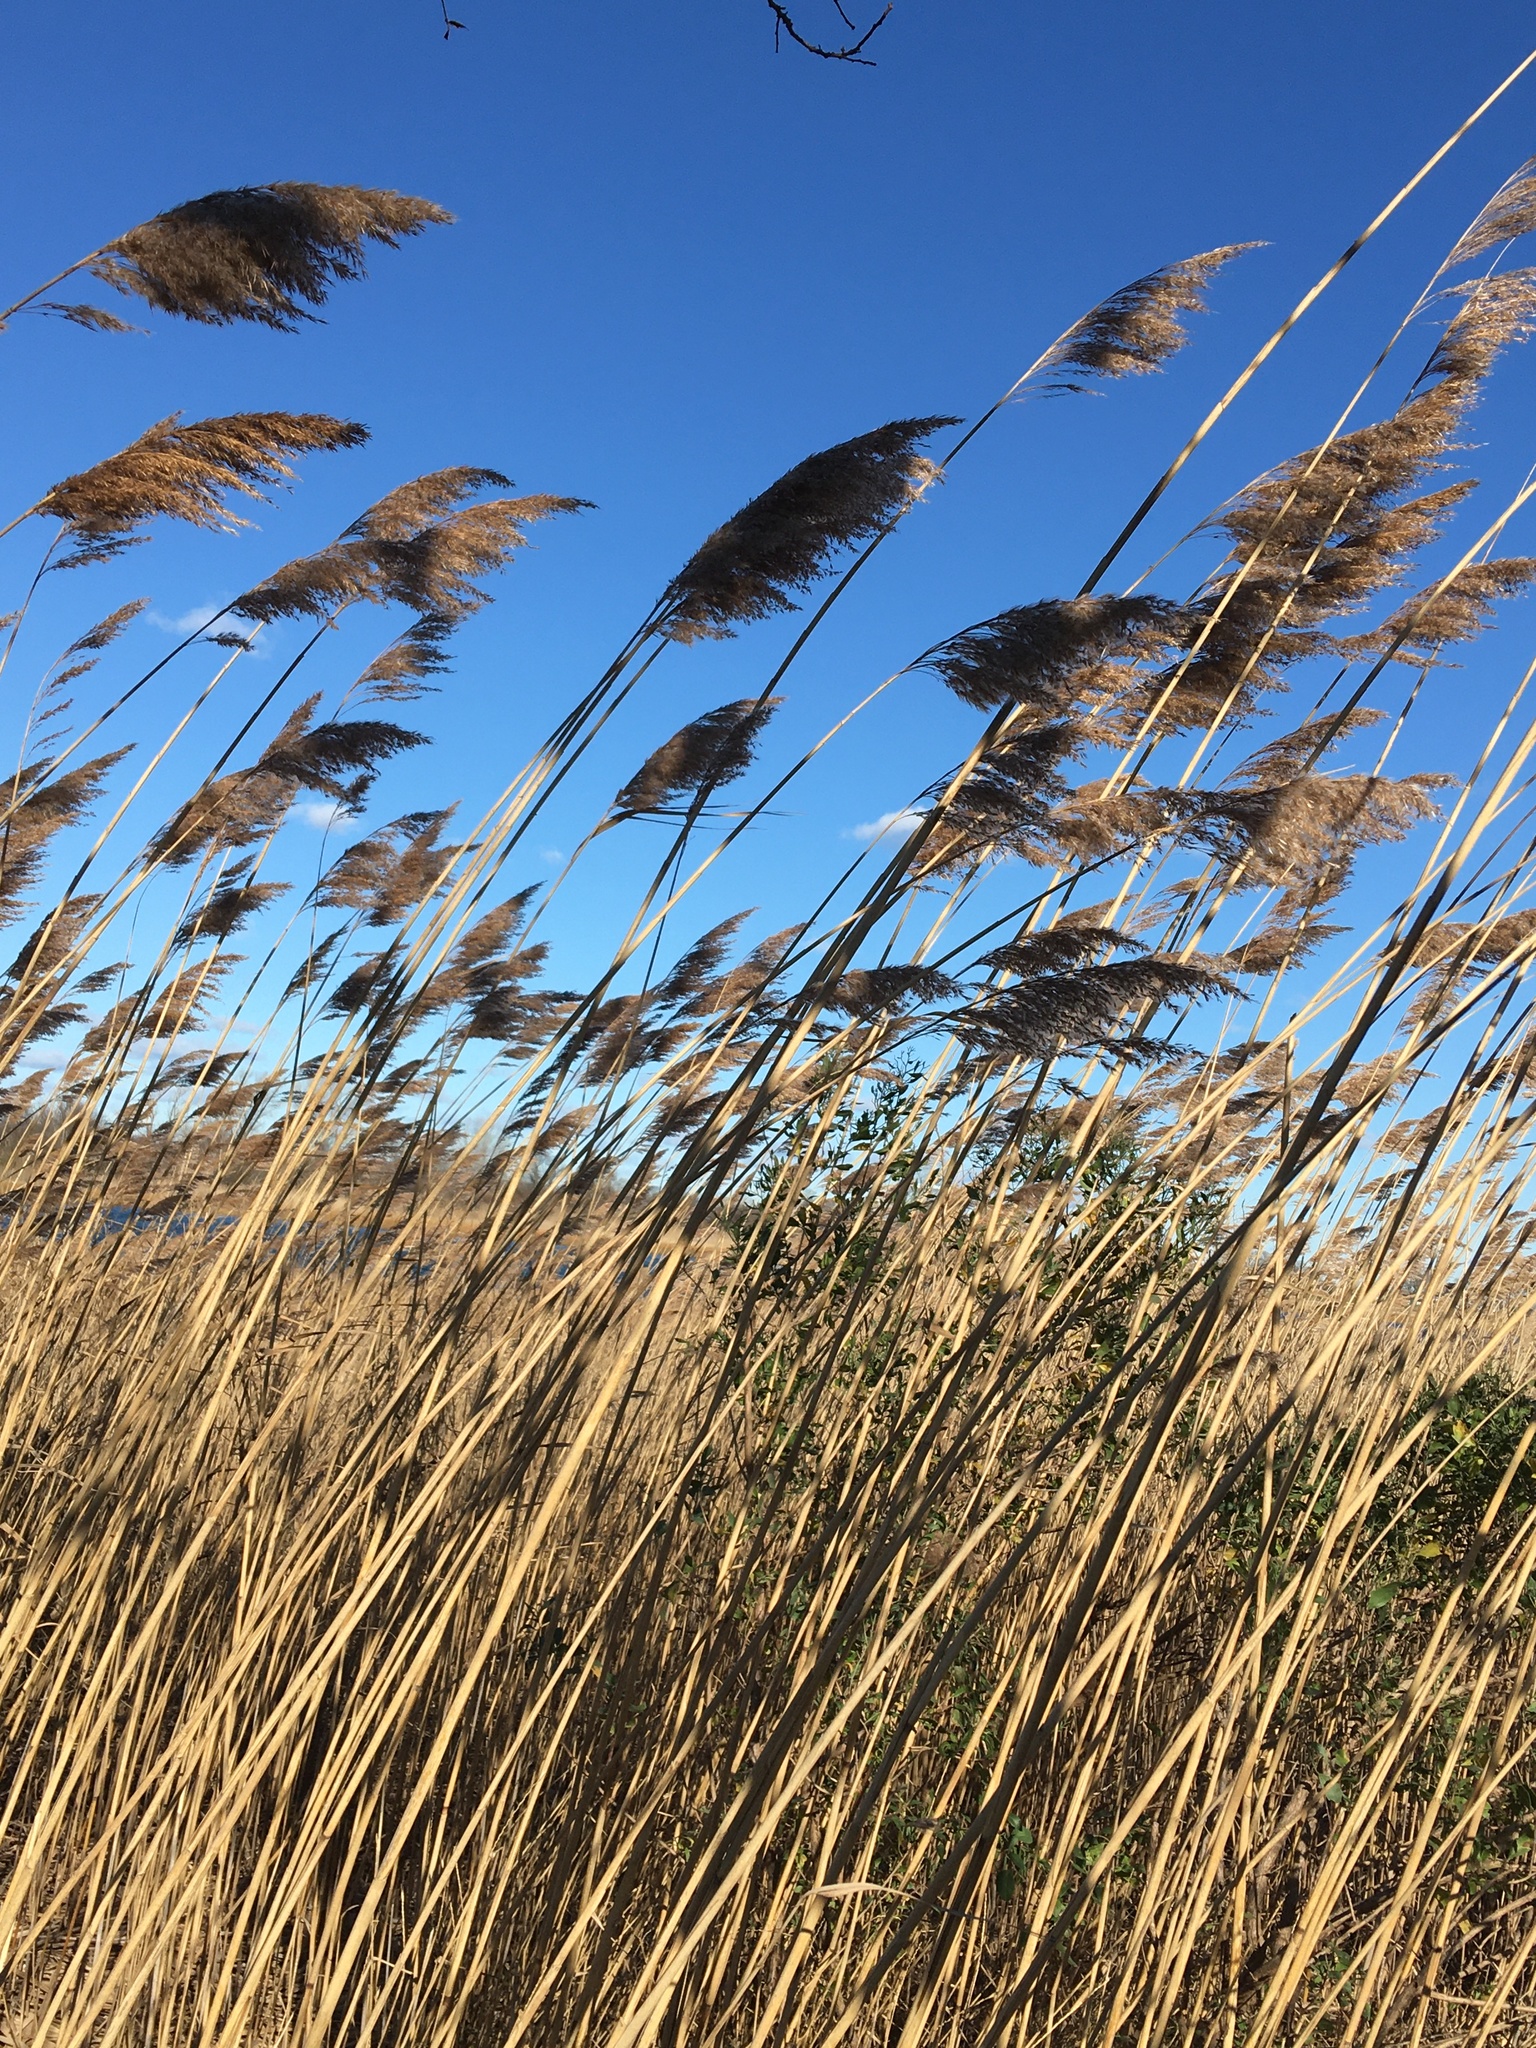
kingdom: Plantae
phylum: Tracheophyta
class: Liliopsida
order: Poales
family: Poaceae
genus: Phragmites
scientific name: Phragmites australis
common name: Common reed
